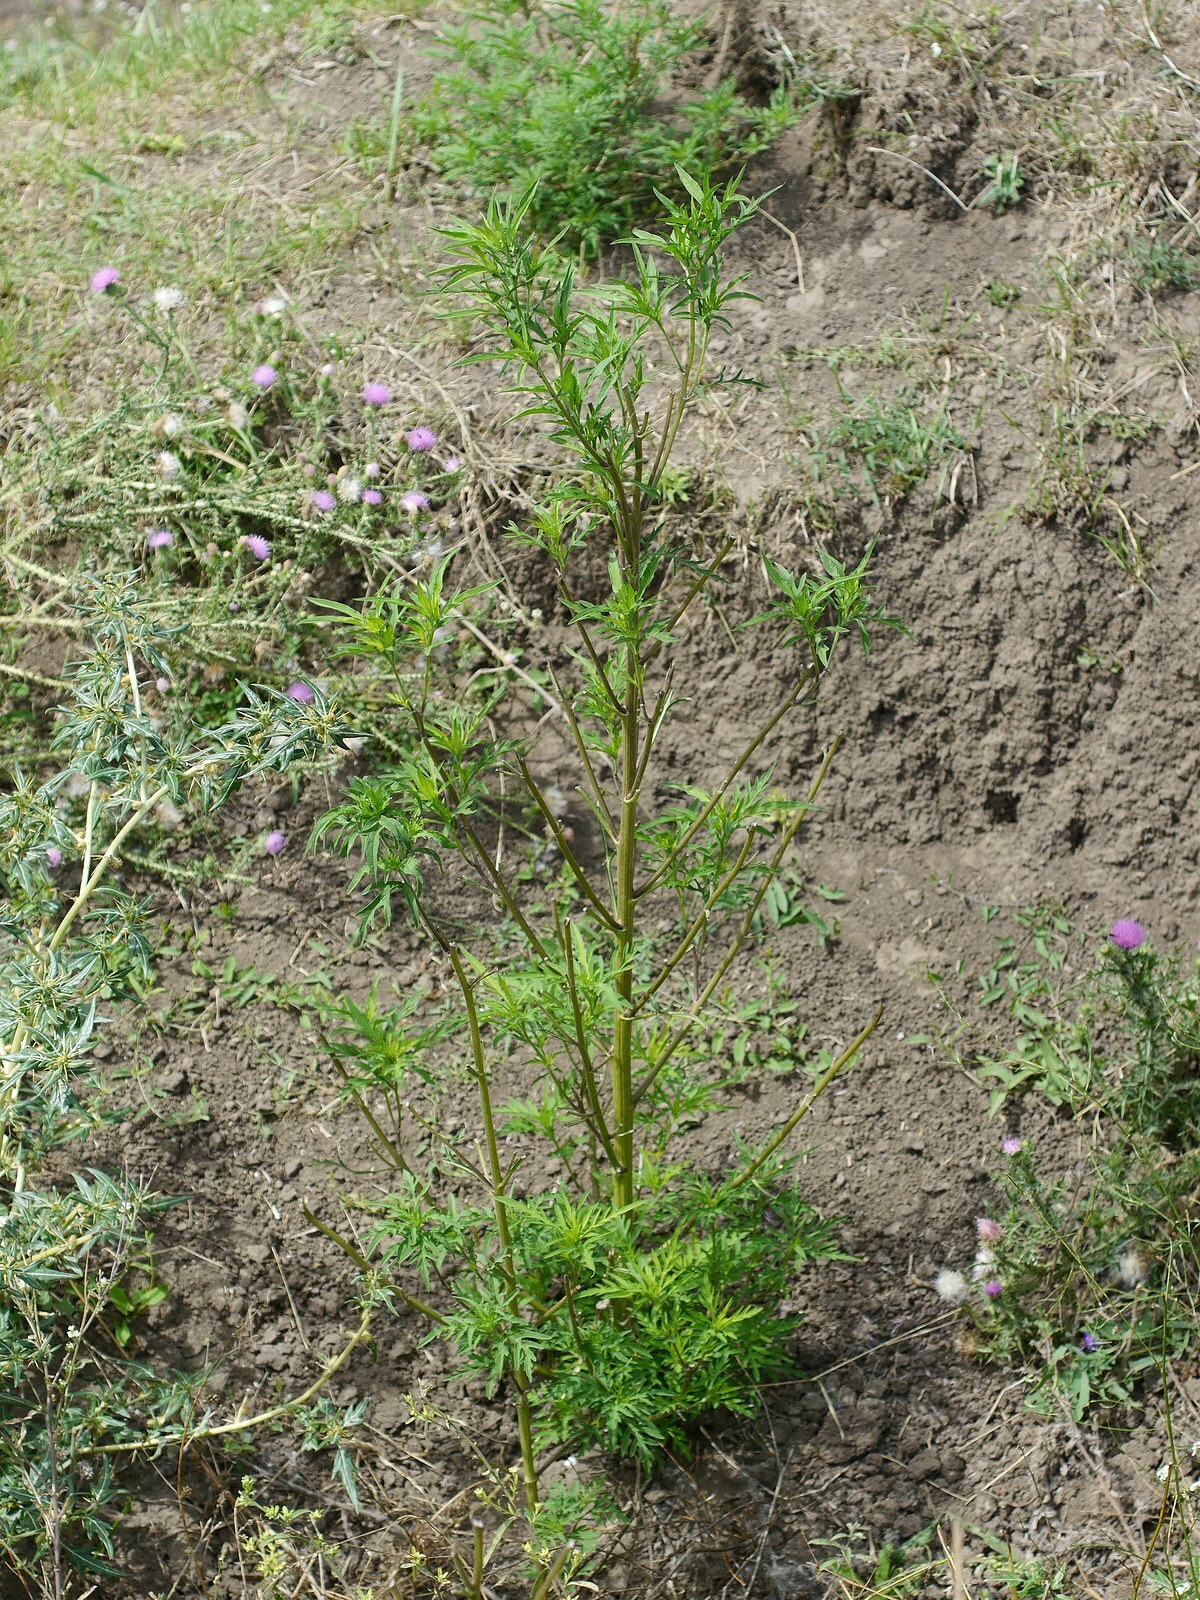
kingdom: Plantae
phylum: Tracheophyta
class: Magnoliopsida
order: Asterales
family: Asteraceae
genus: Ambrosia
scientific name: Ambrosia artemisiifolia
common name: Annual ragweed
